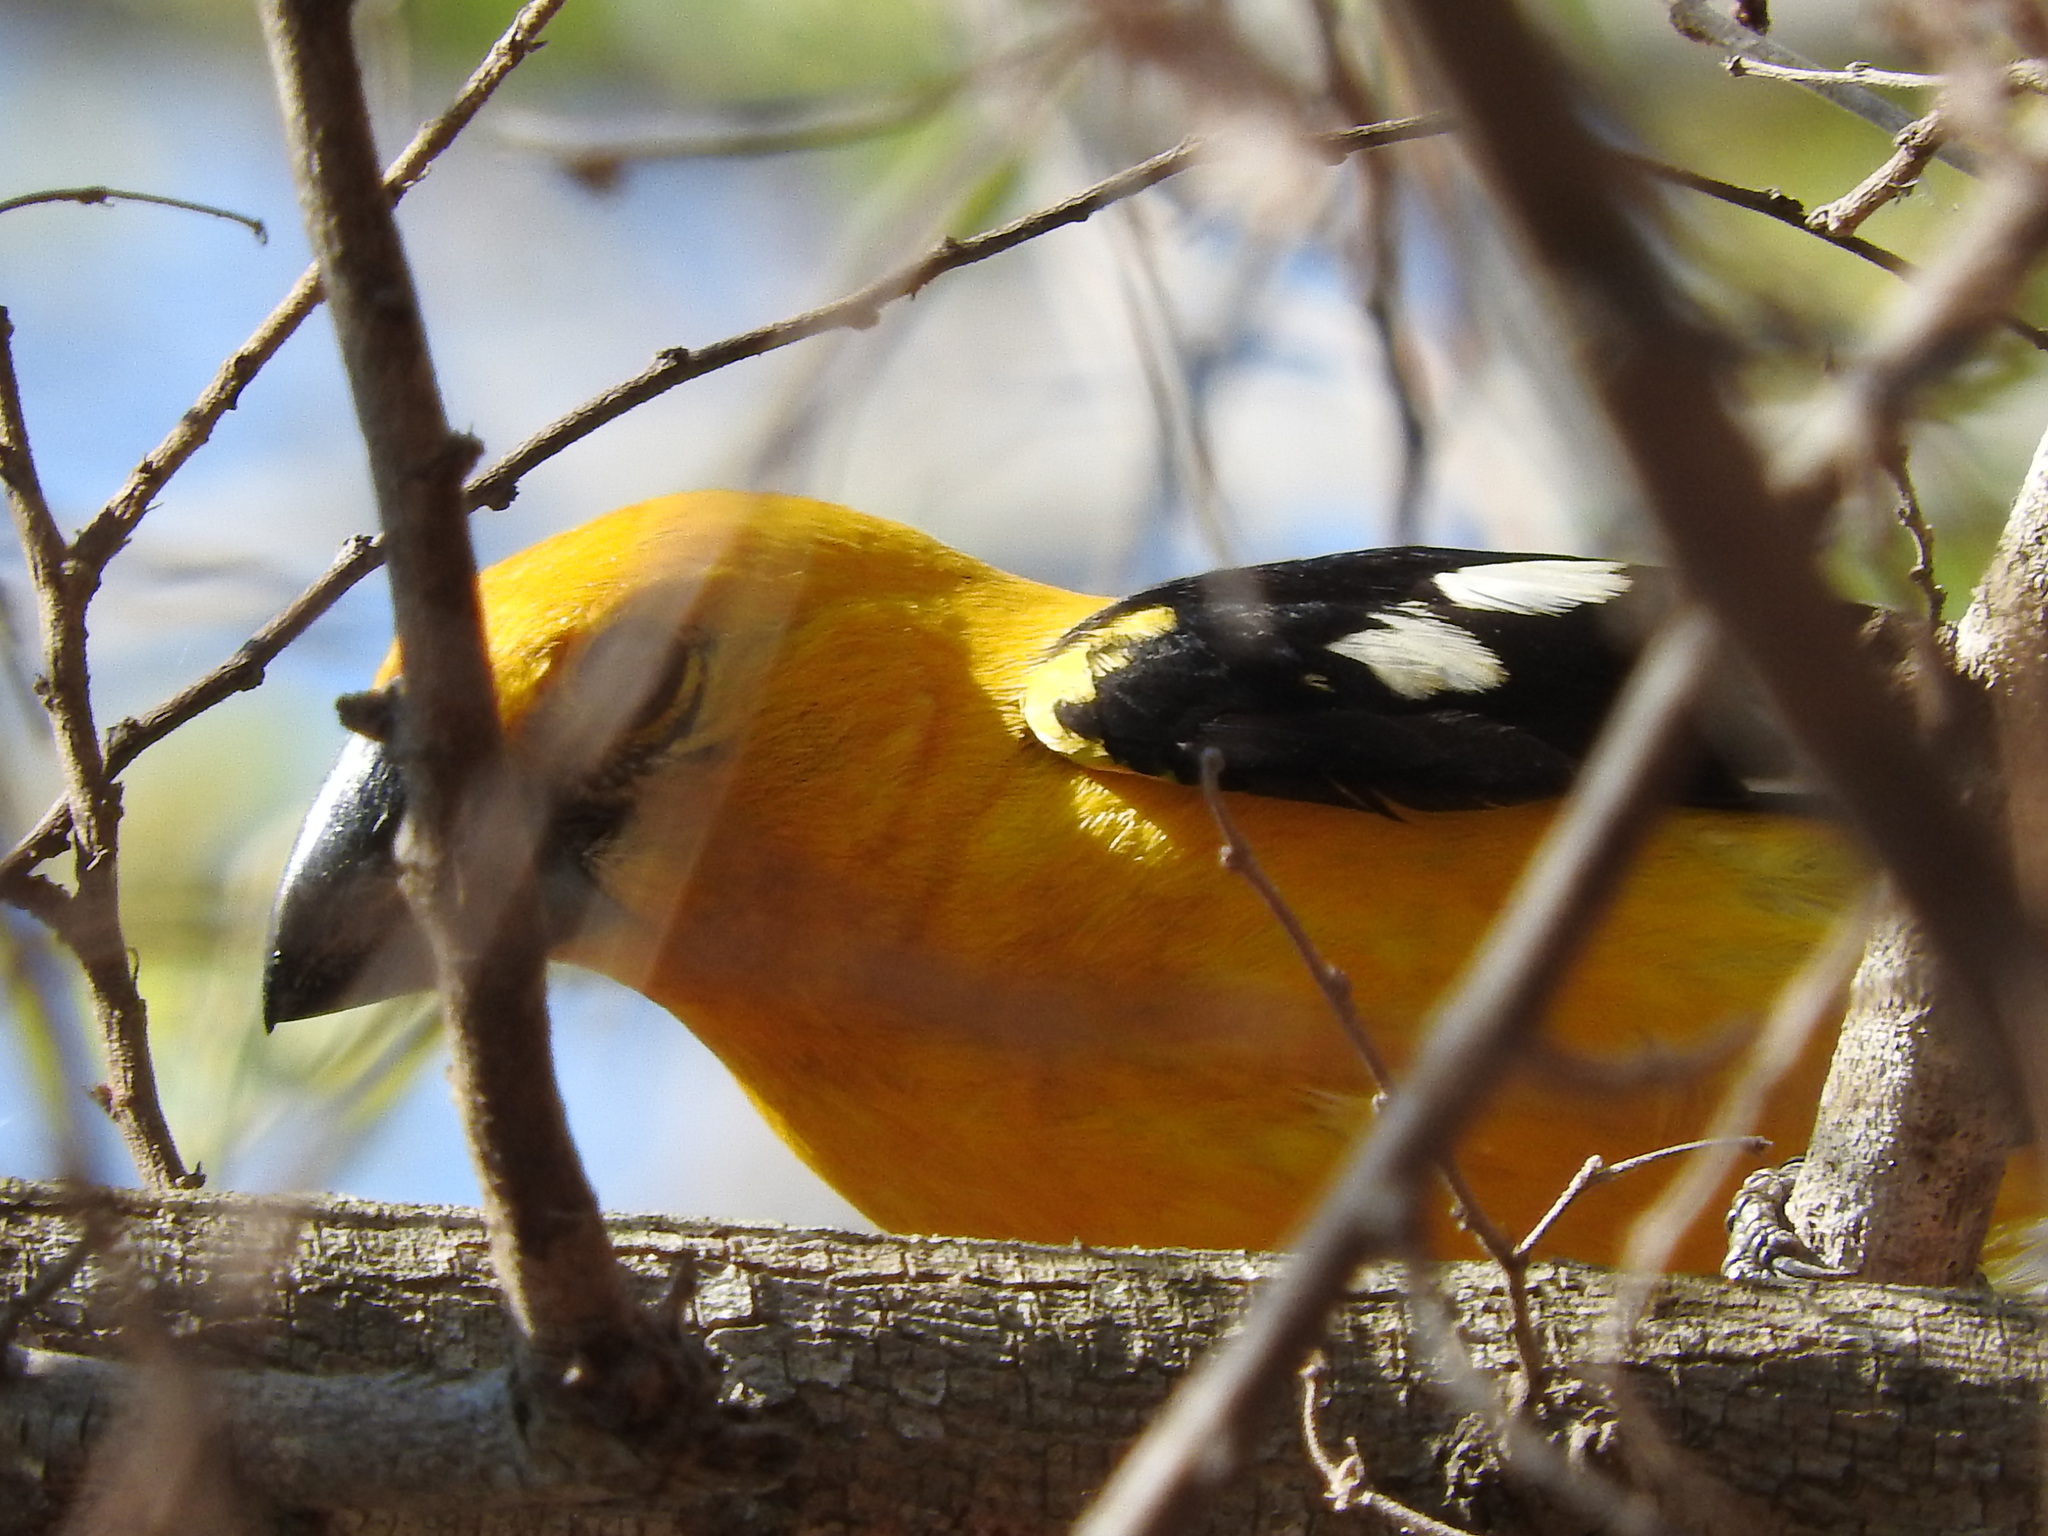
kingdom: Animalia
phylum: Chordata
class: Aves
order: Passeriformes
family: Cardinalidae
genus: Pheucticus
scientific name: Pheucticus chrysopeplus
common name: Yellow grosbeak
